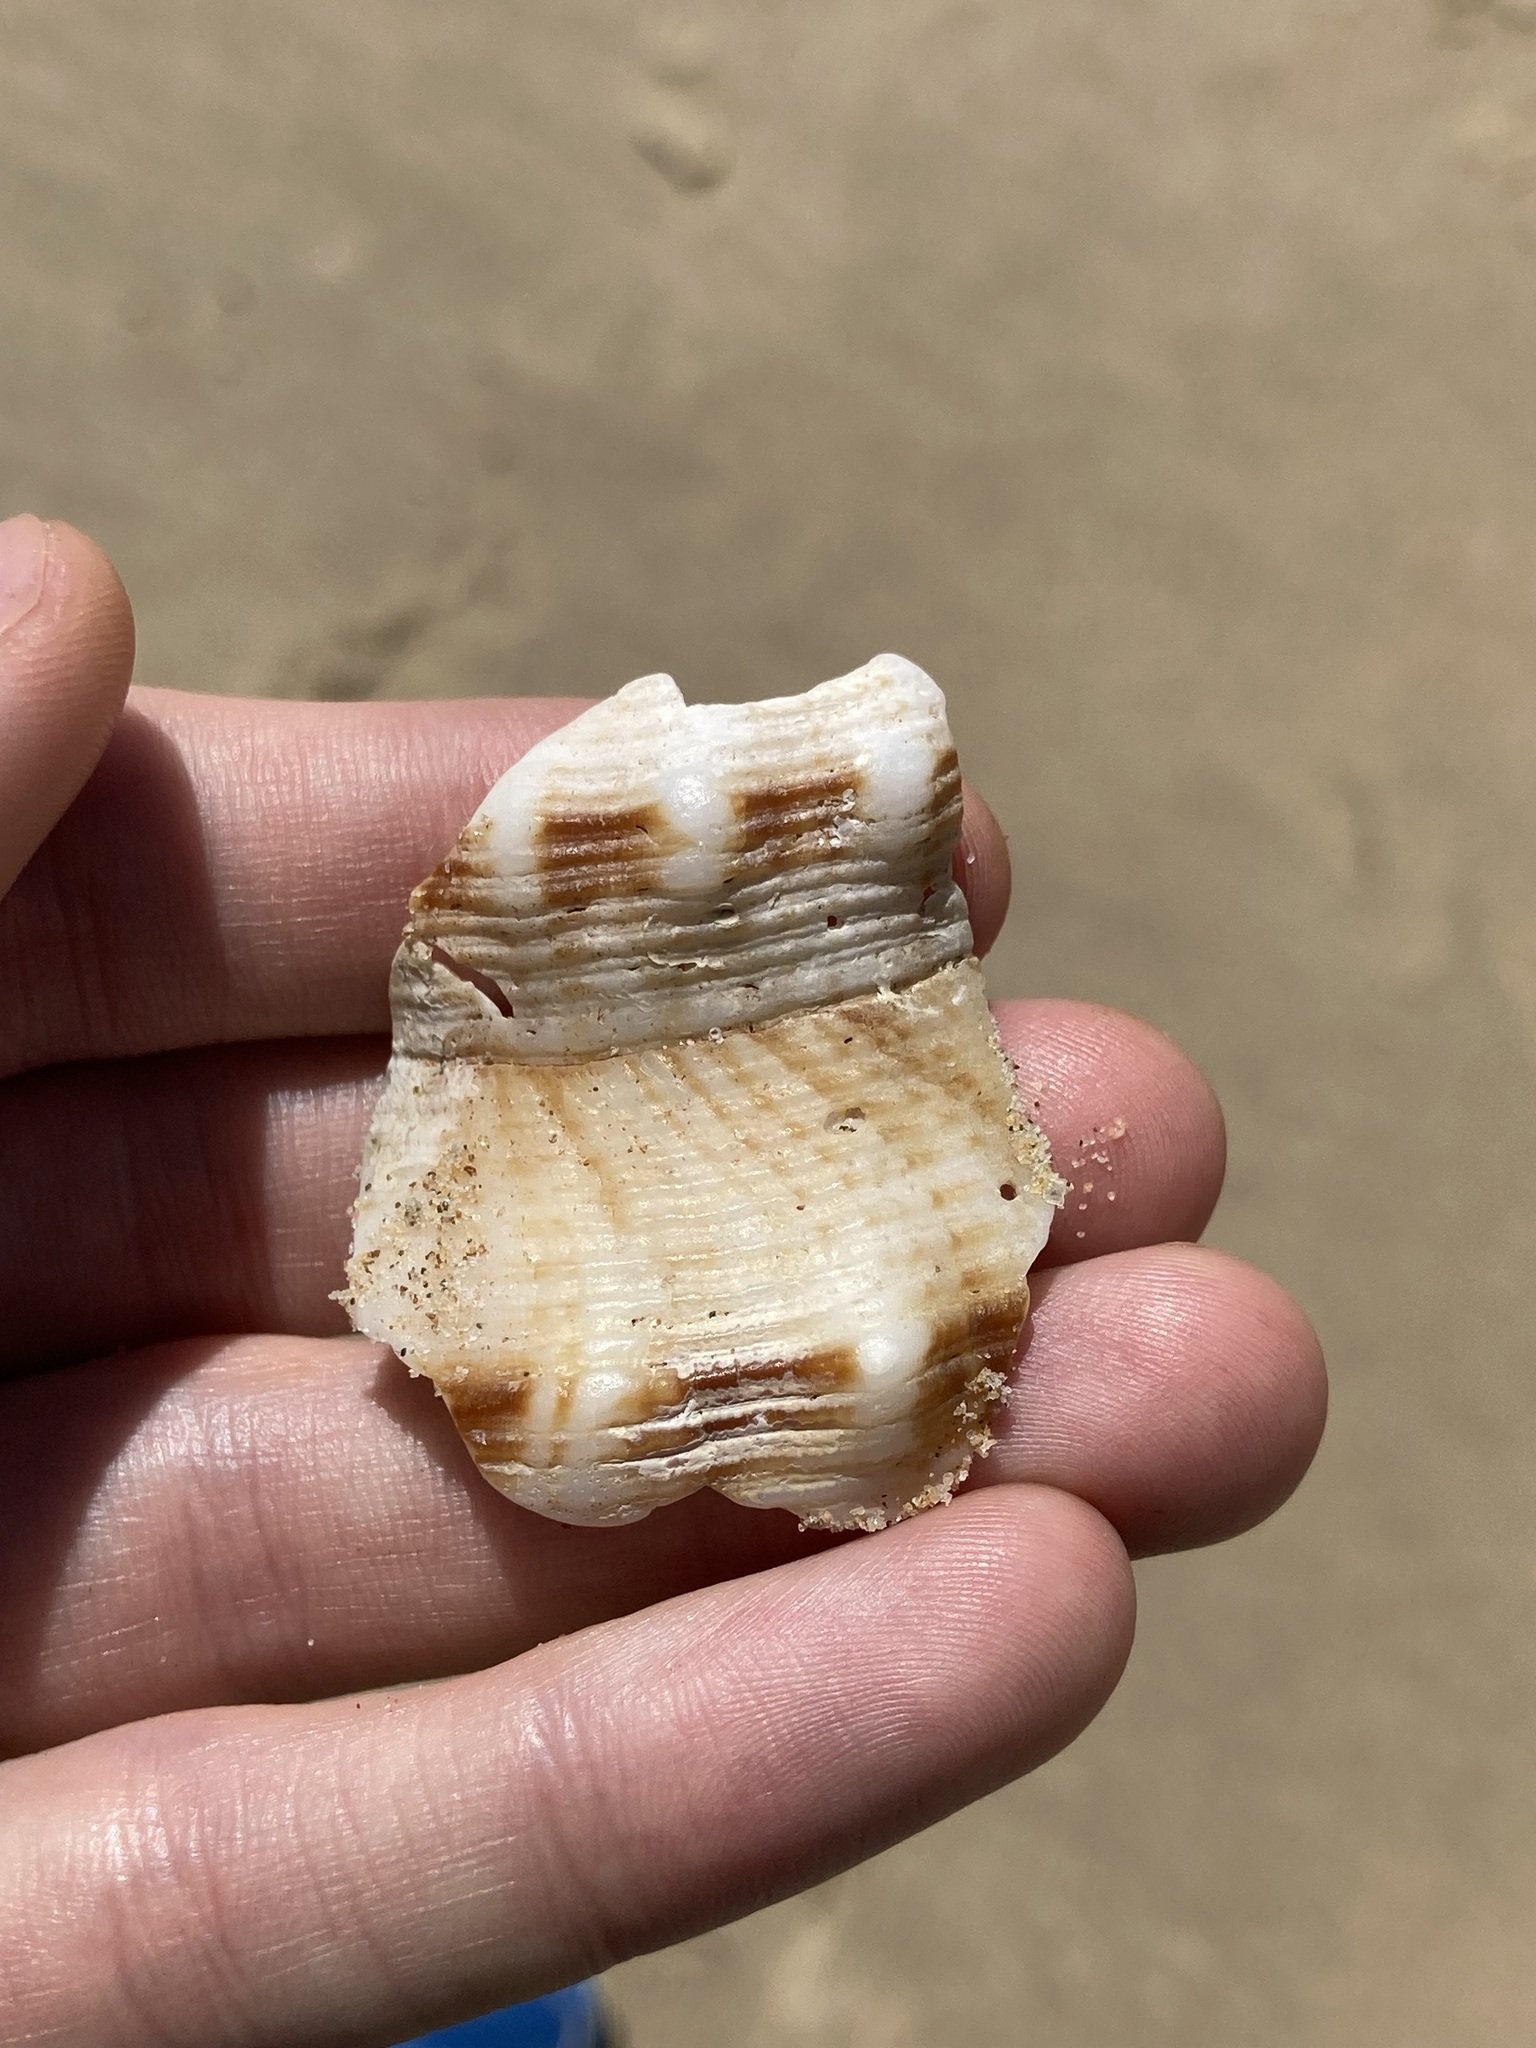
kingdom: Animalia
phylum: Mollusca
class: Gastropoda
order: Neogastropoda
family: Austrosiphonidae
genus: Penion
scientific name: Penion maximus
